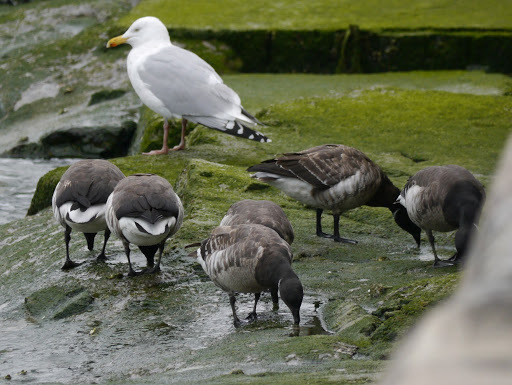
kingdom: Animalia
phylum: Chordata
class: Aves
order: Anseriformes
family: Anatidae
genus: Branta
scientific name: Branta bernicla
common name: Brant goose
